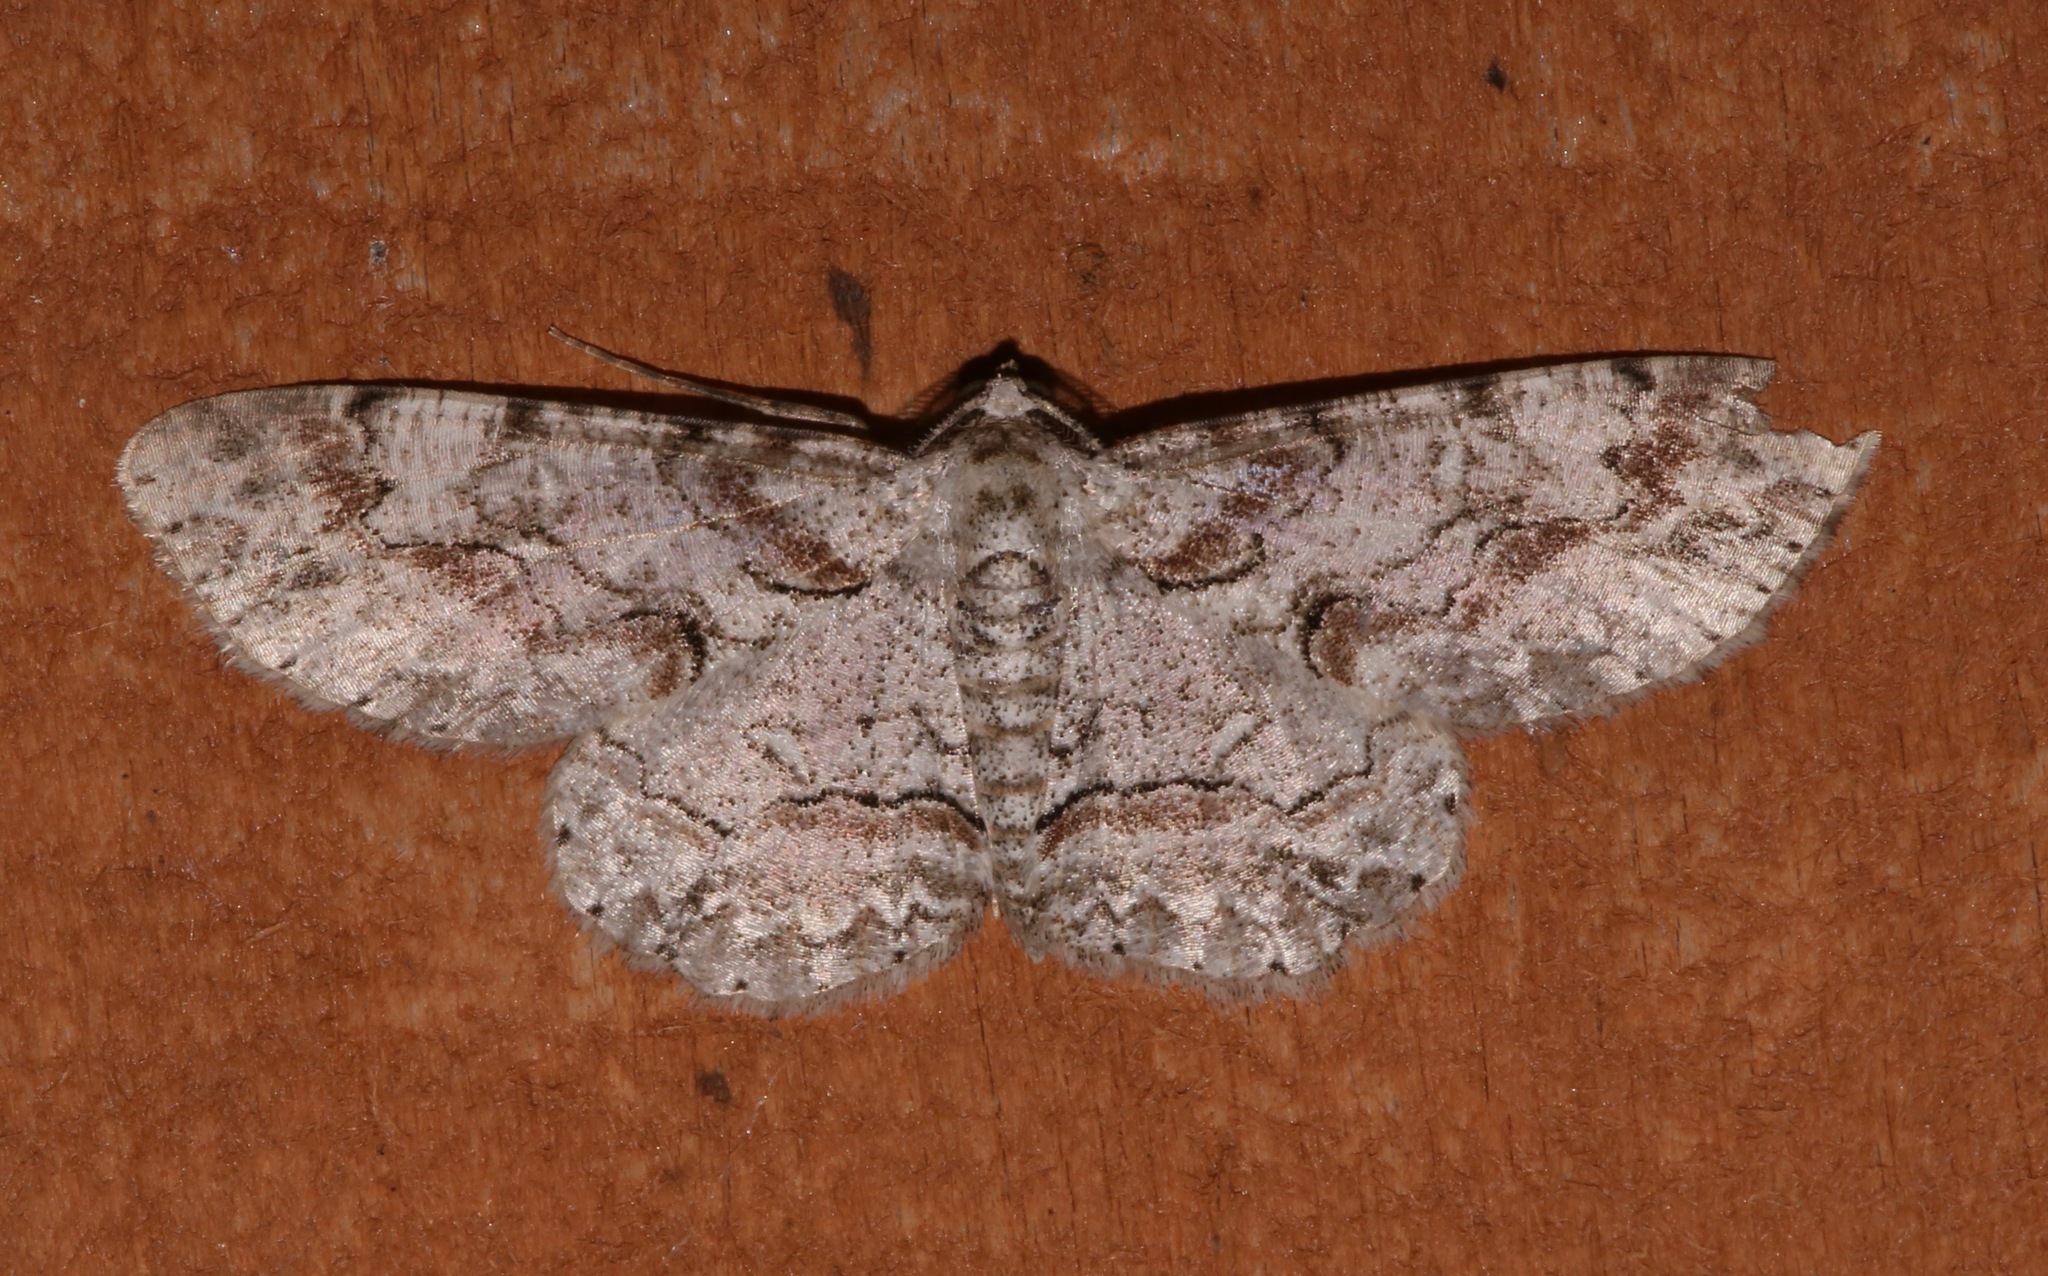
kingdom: Animalia
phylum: Arthropoda
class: Insecta
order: Lepidoptera
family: Geometridae
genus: Iridopsis
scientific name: Iridopsis defectaria
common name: Brown-shaded gray
